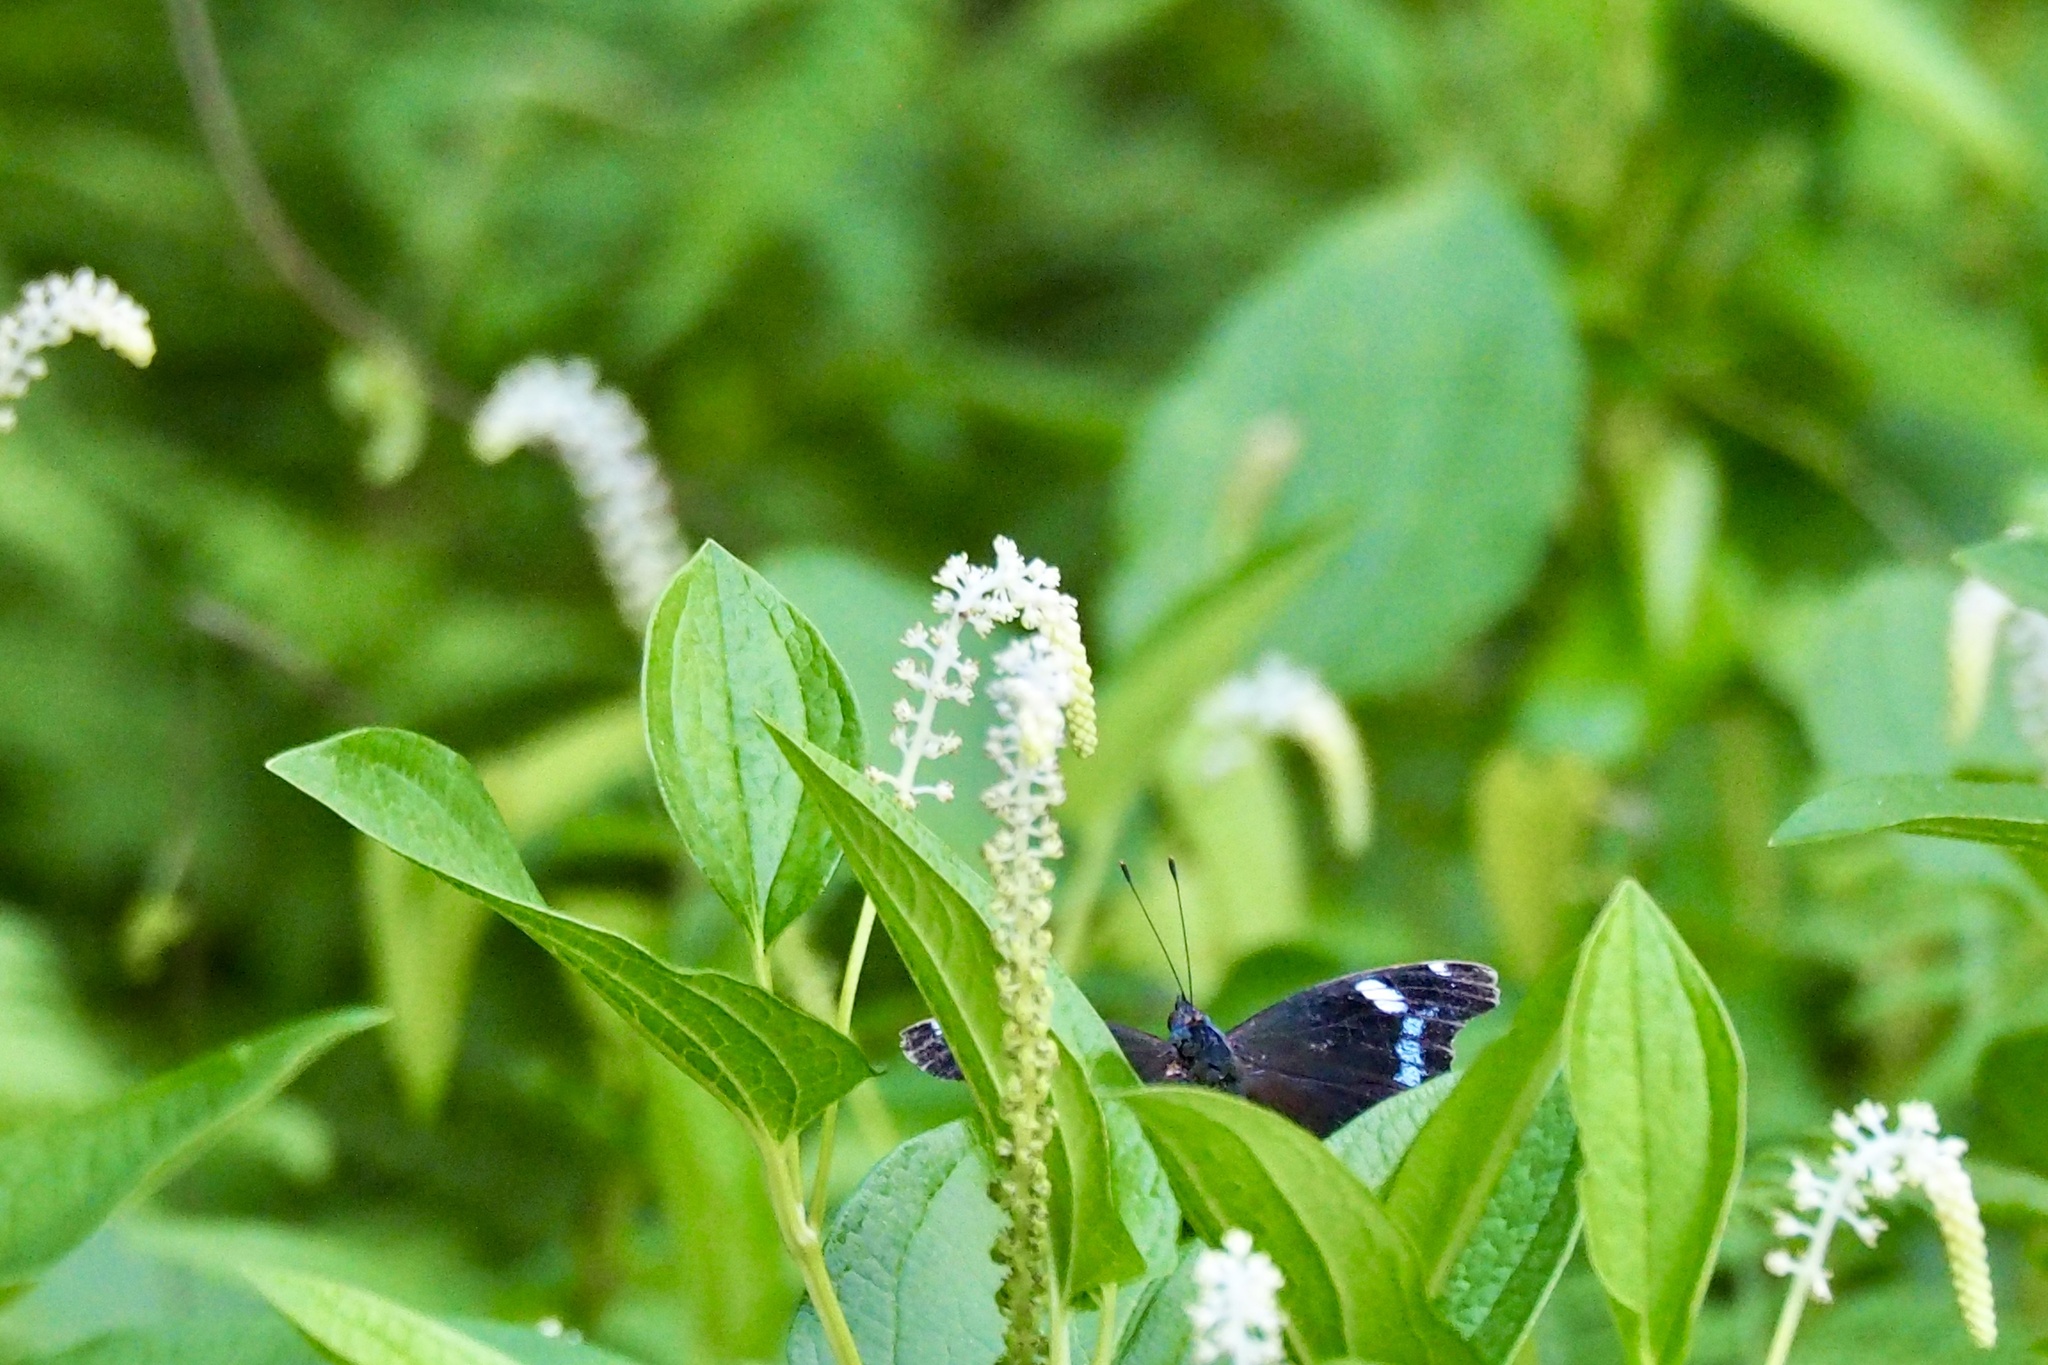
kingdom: Animalia
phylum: Arthropoda
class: Insecta
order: Lepidoptera
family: Nymphalidae
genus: Vanessa
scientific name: Vanessa Kaniska canace
